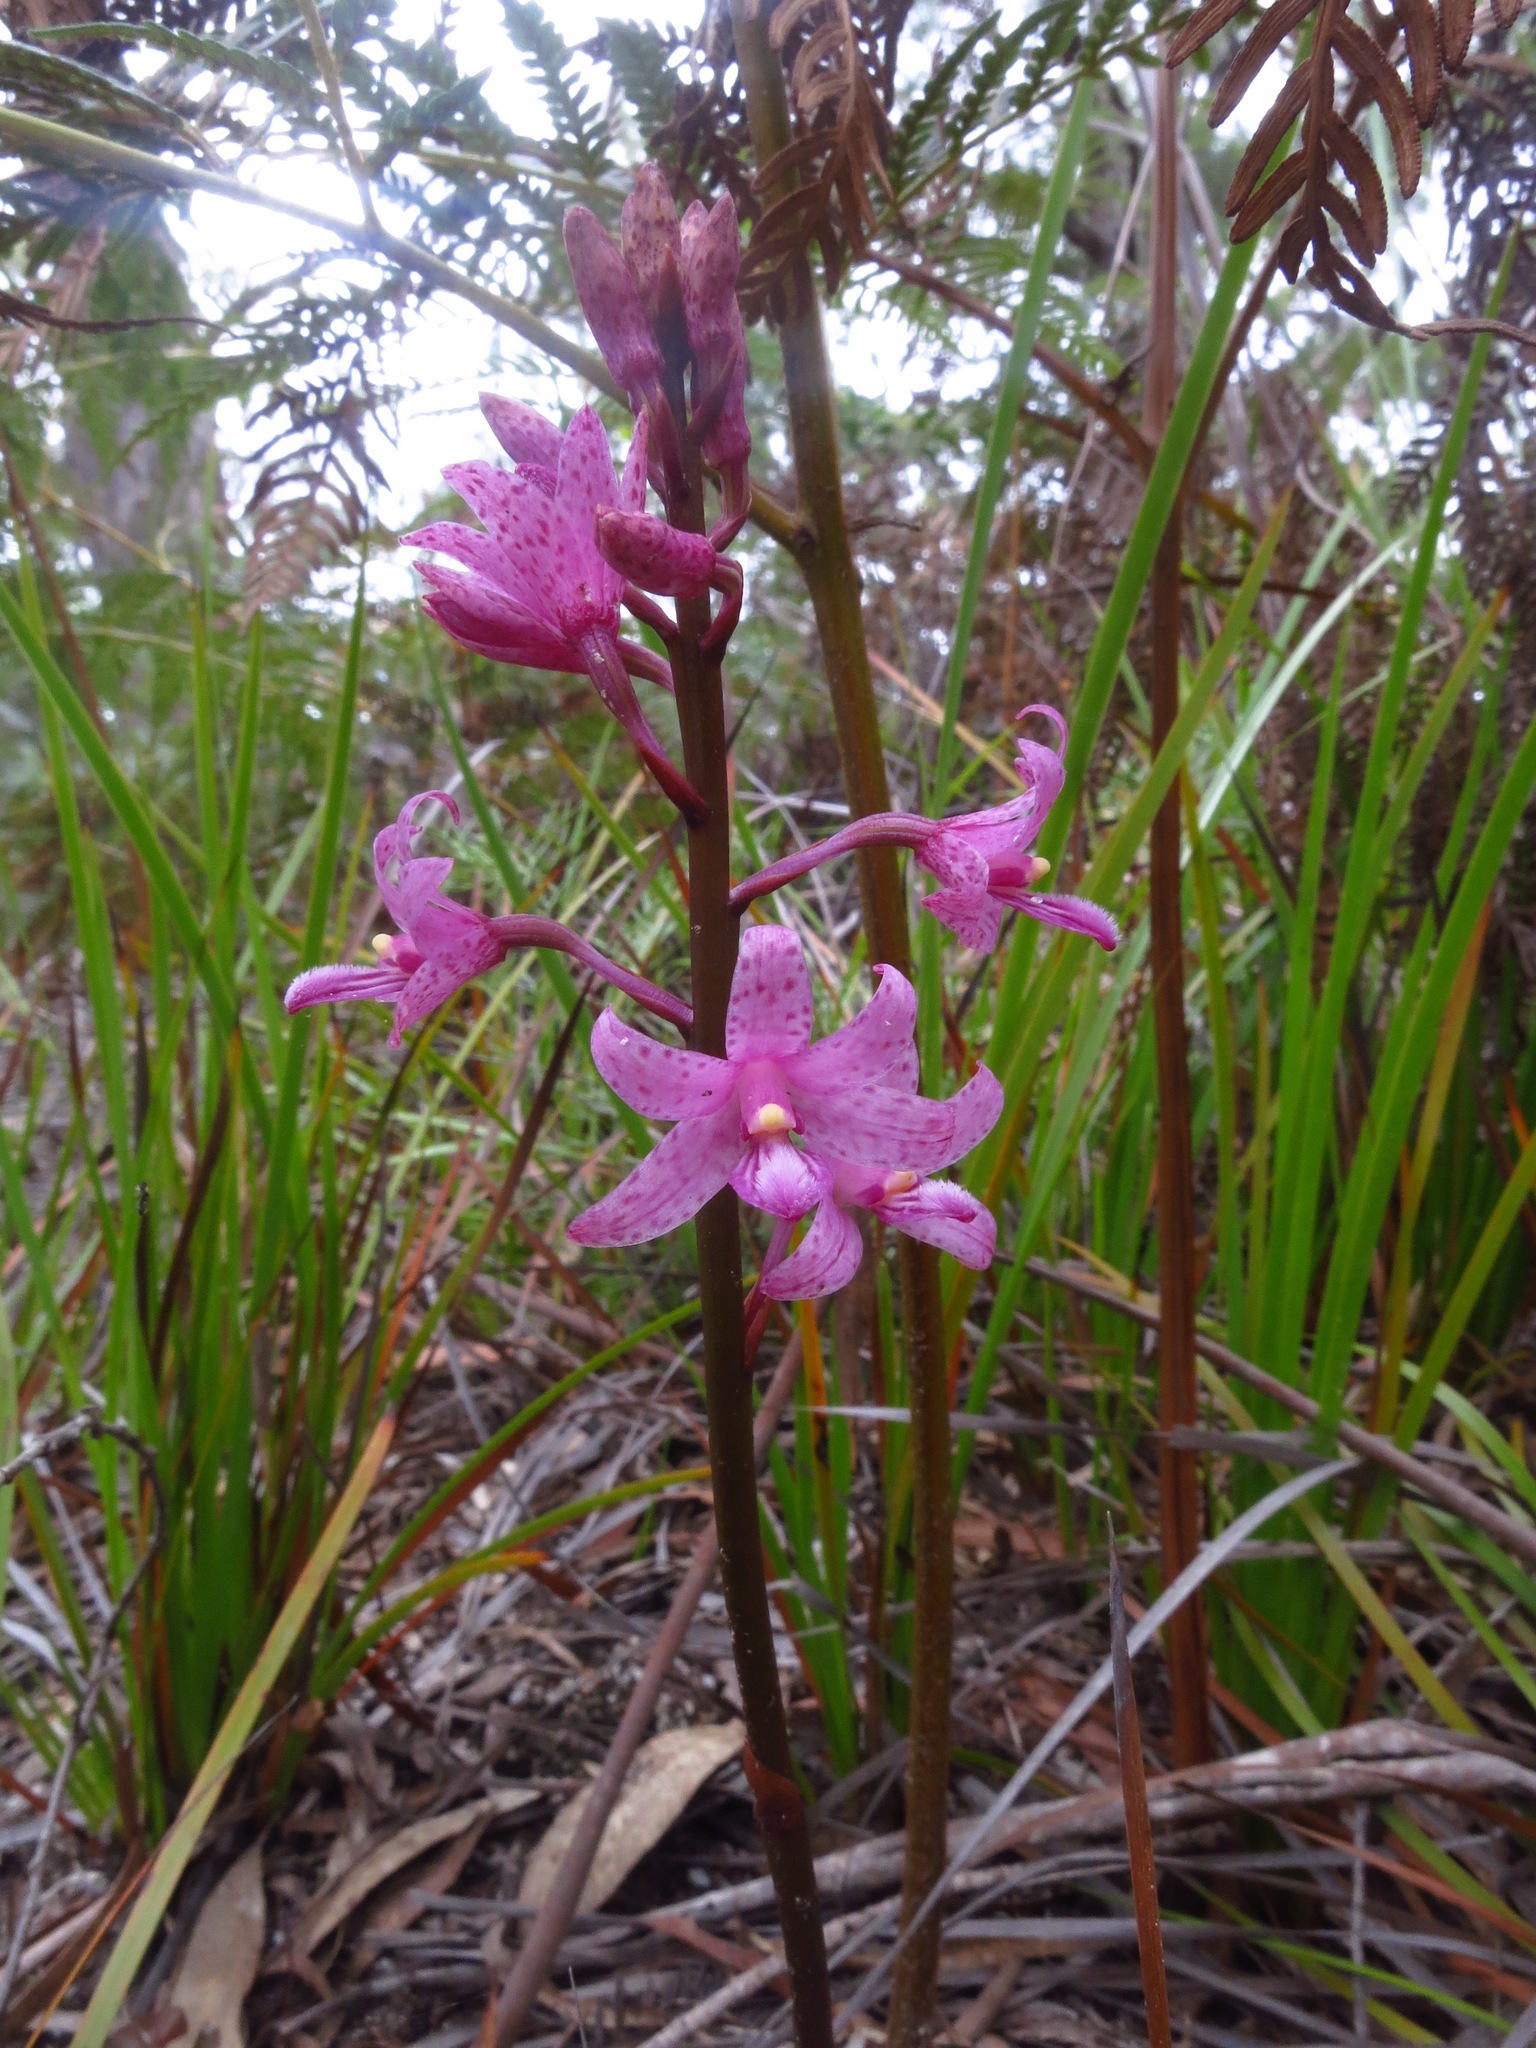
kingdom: Plantae
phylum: Tracheophyta
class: Liliopsida
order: Asparagales
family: Orchidaceae
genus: Dipodium
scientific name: Dipodium roseum
